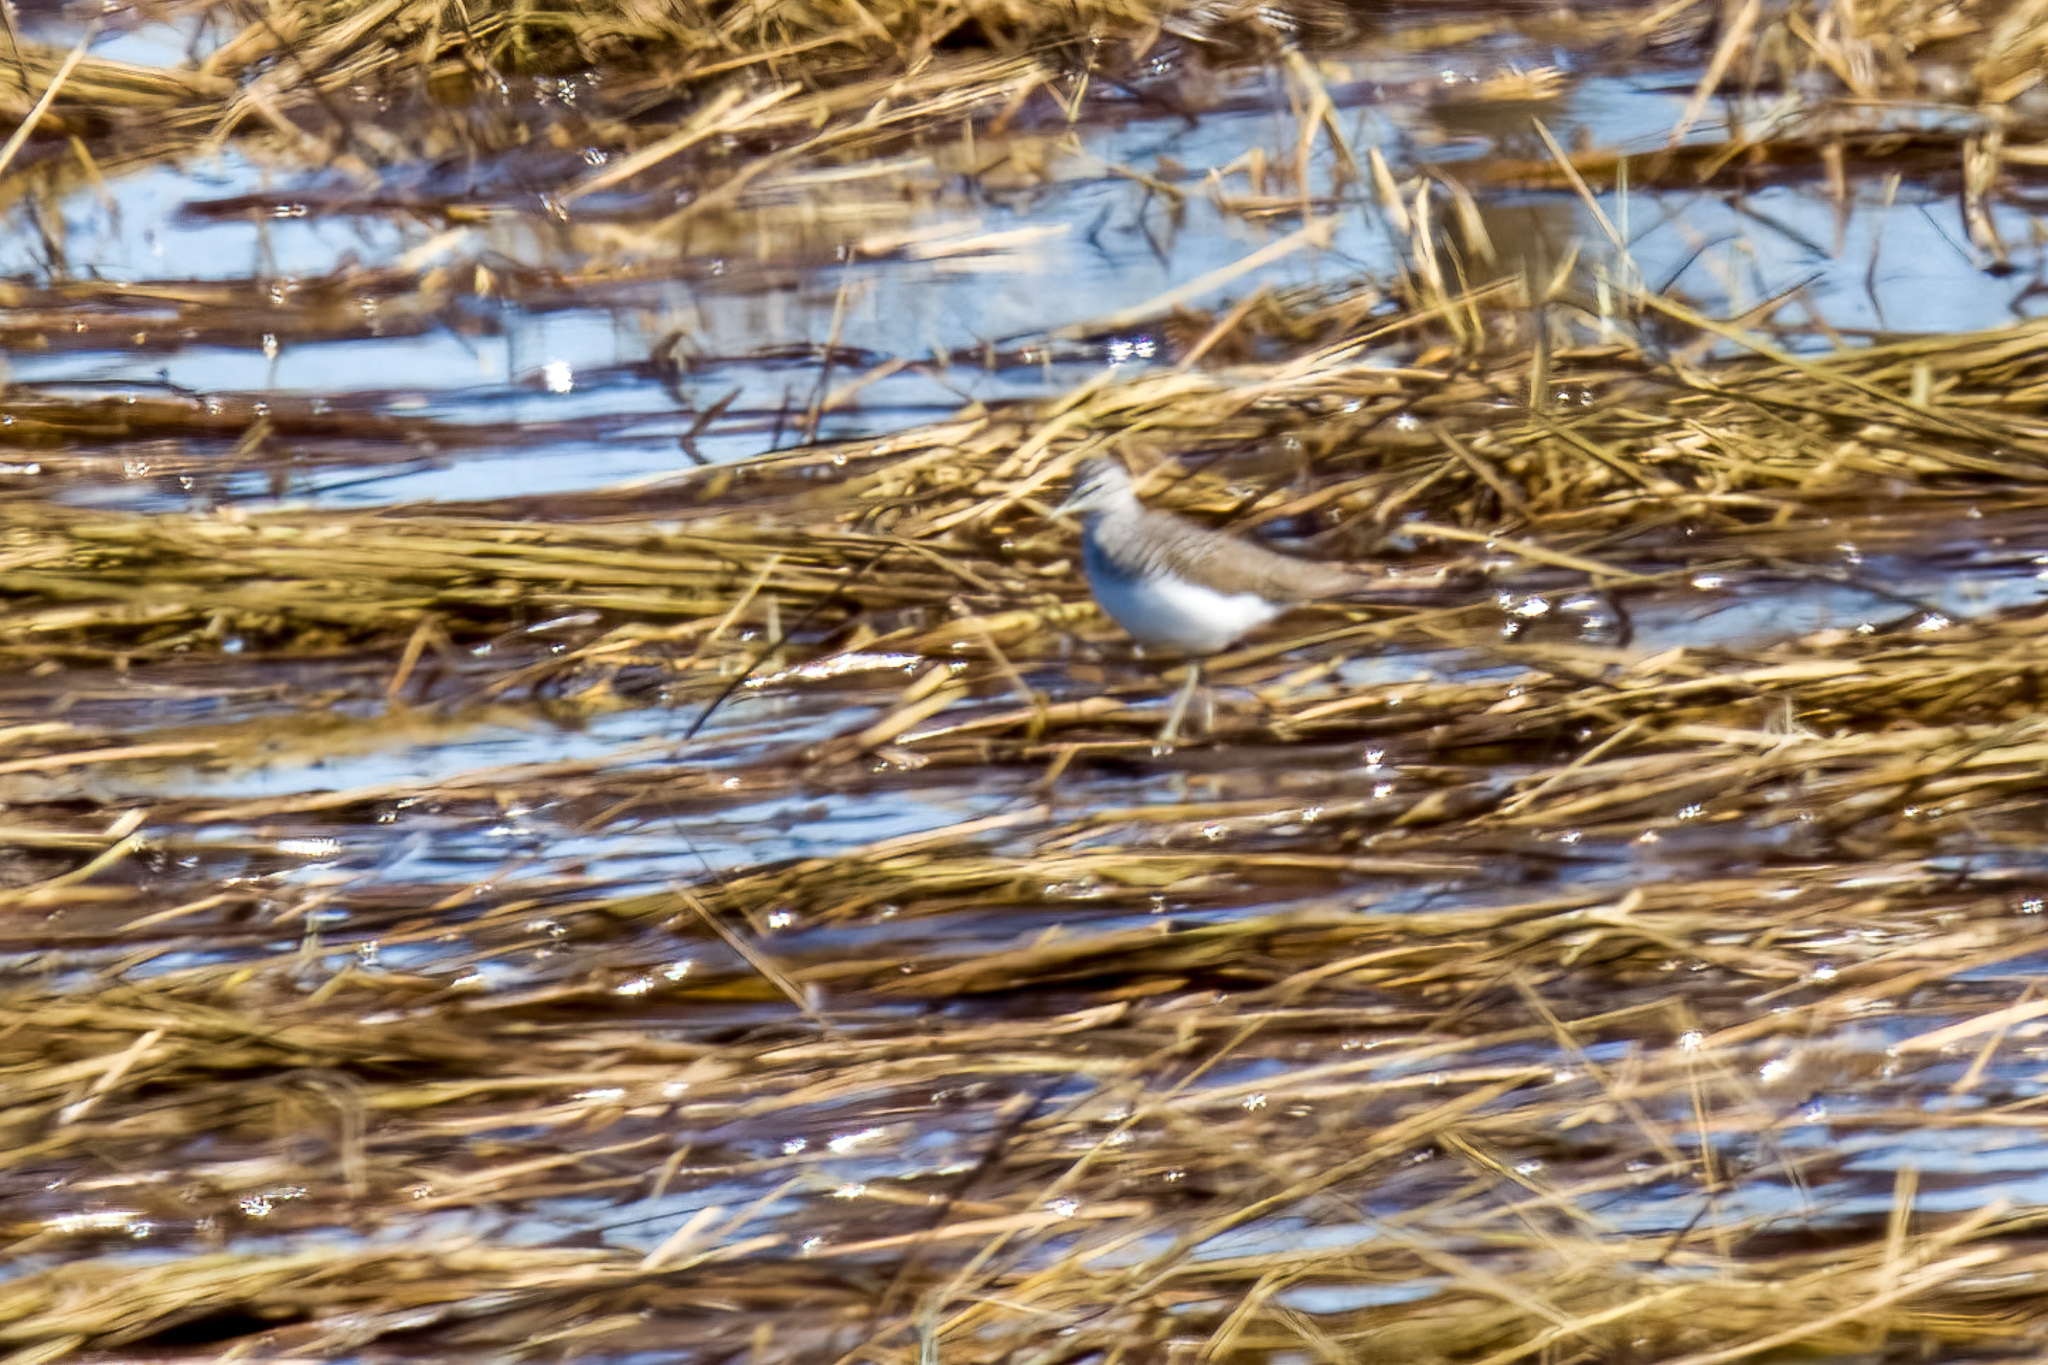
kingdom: Animalia
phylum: Chordata
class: Aves
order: Charadriiformes
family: Scolopacidae
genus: Tringa
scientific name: Tringa ochropus
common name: Green sandpiper
